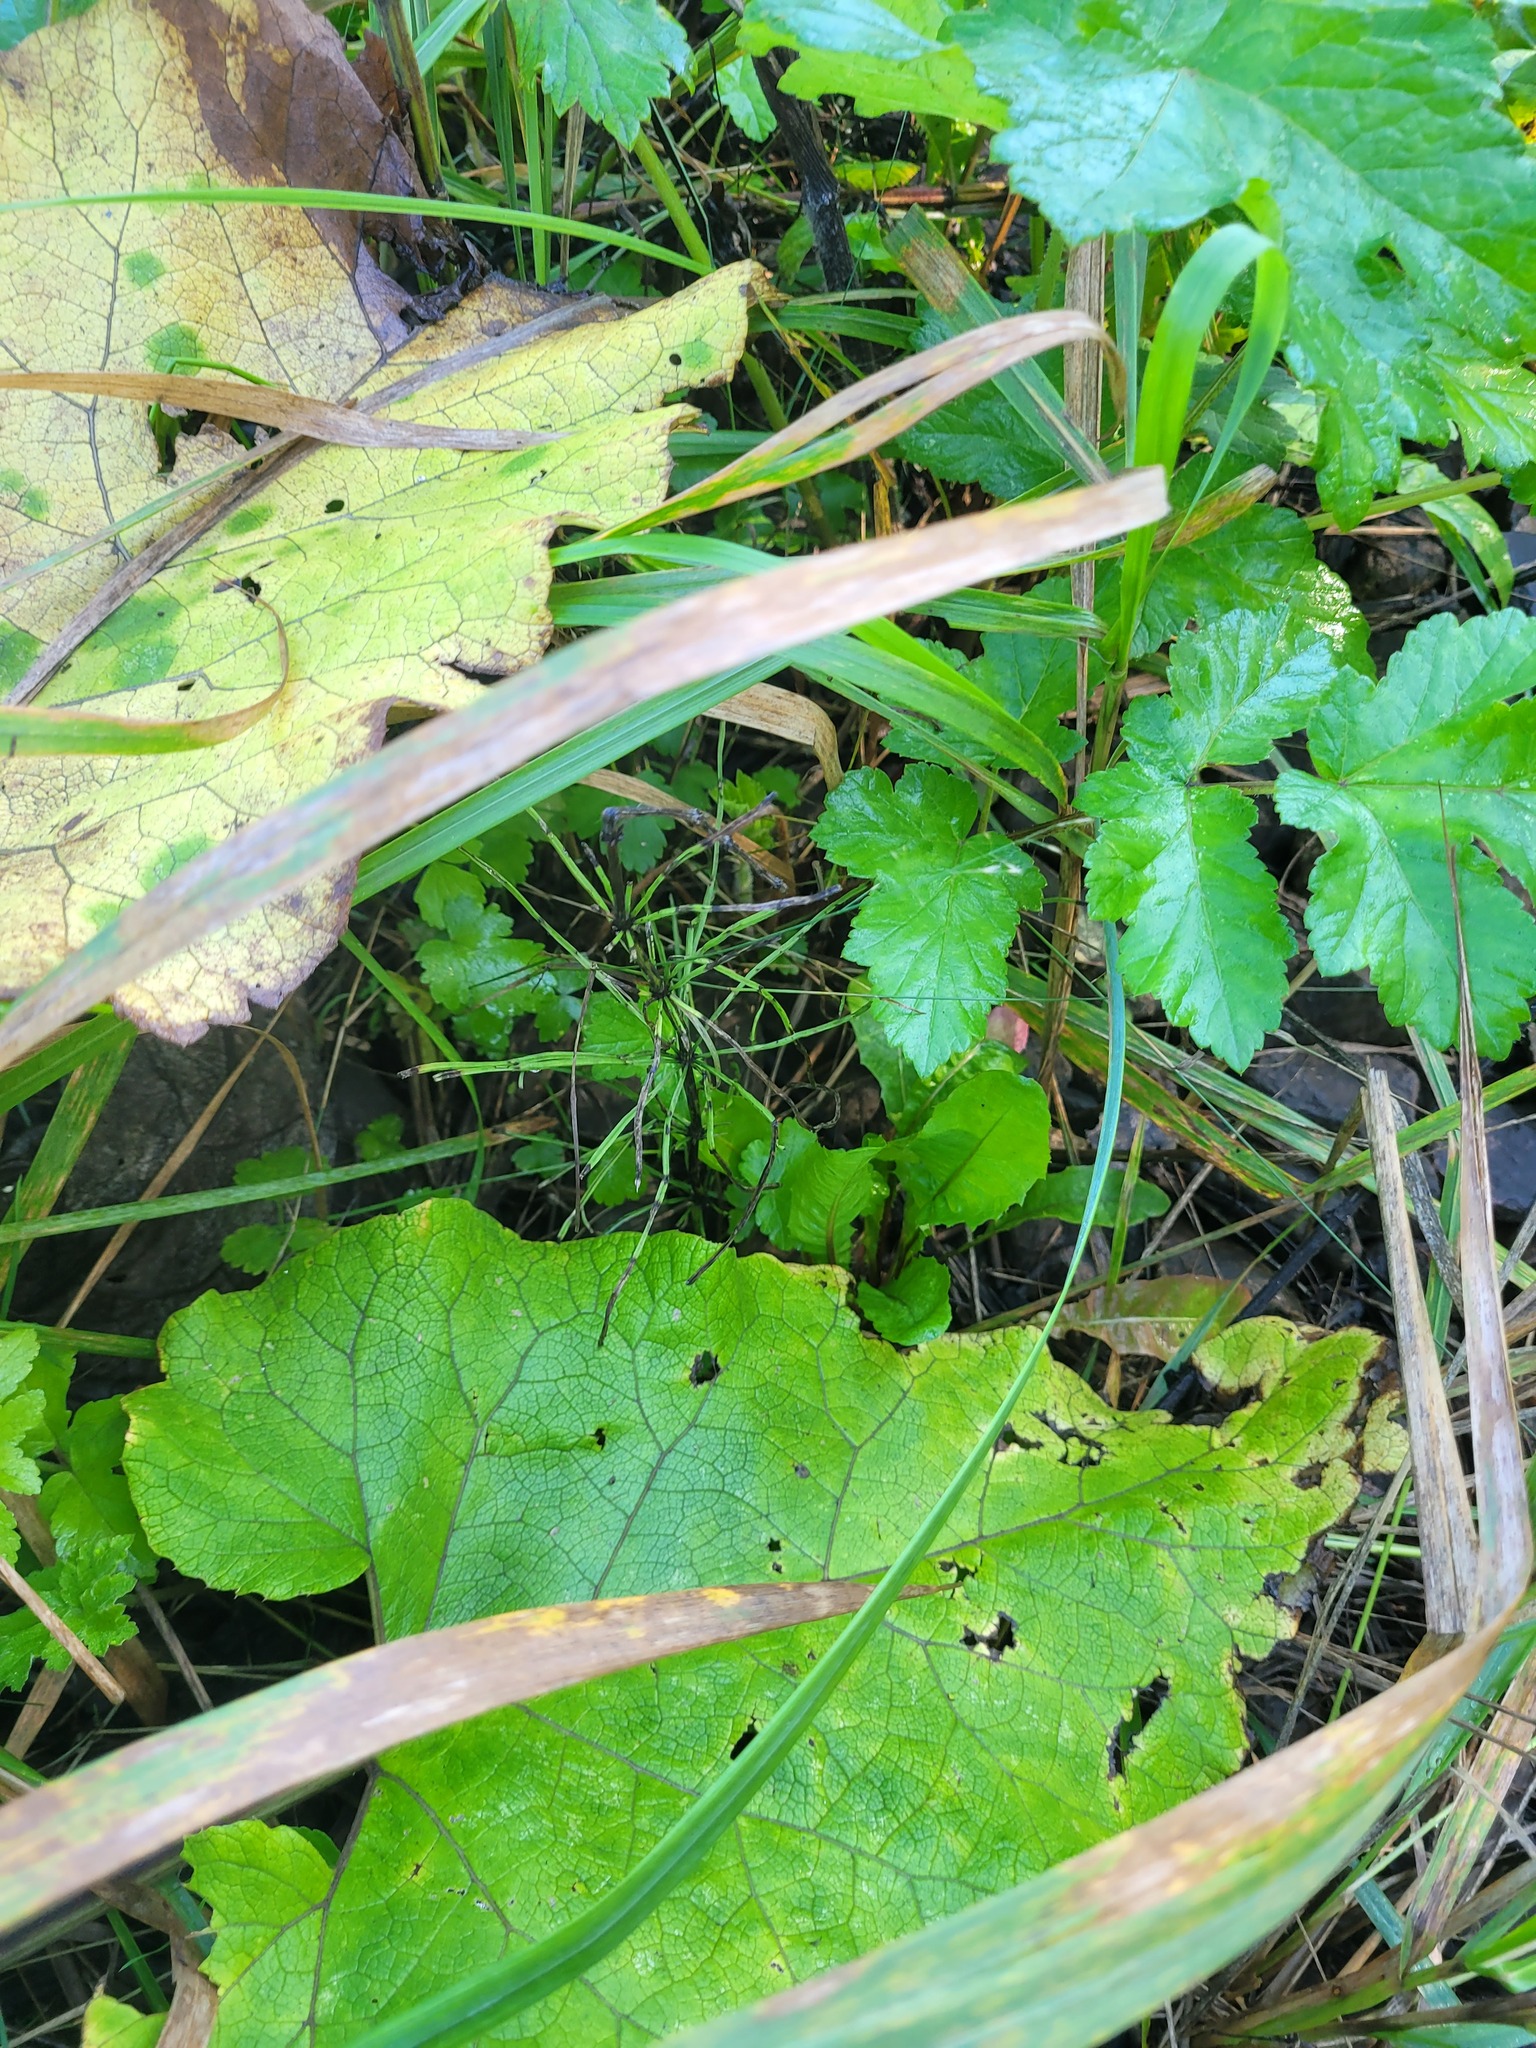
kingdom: Plantae
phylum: Tracheophyta
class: Polypodiopsida
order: Equisetales
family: Equisetaceae
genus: Equisetum
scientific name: Equisetum arvense
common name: Field horsetail
